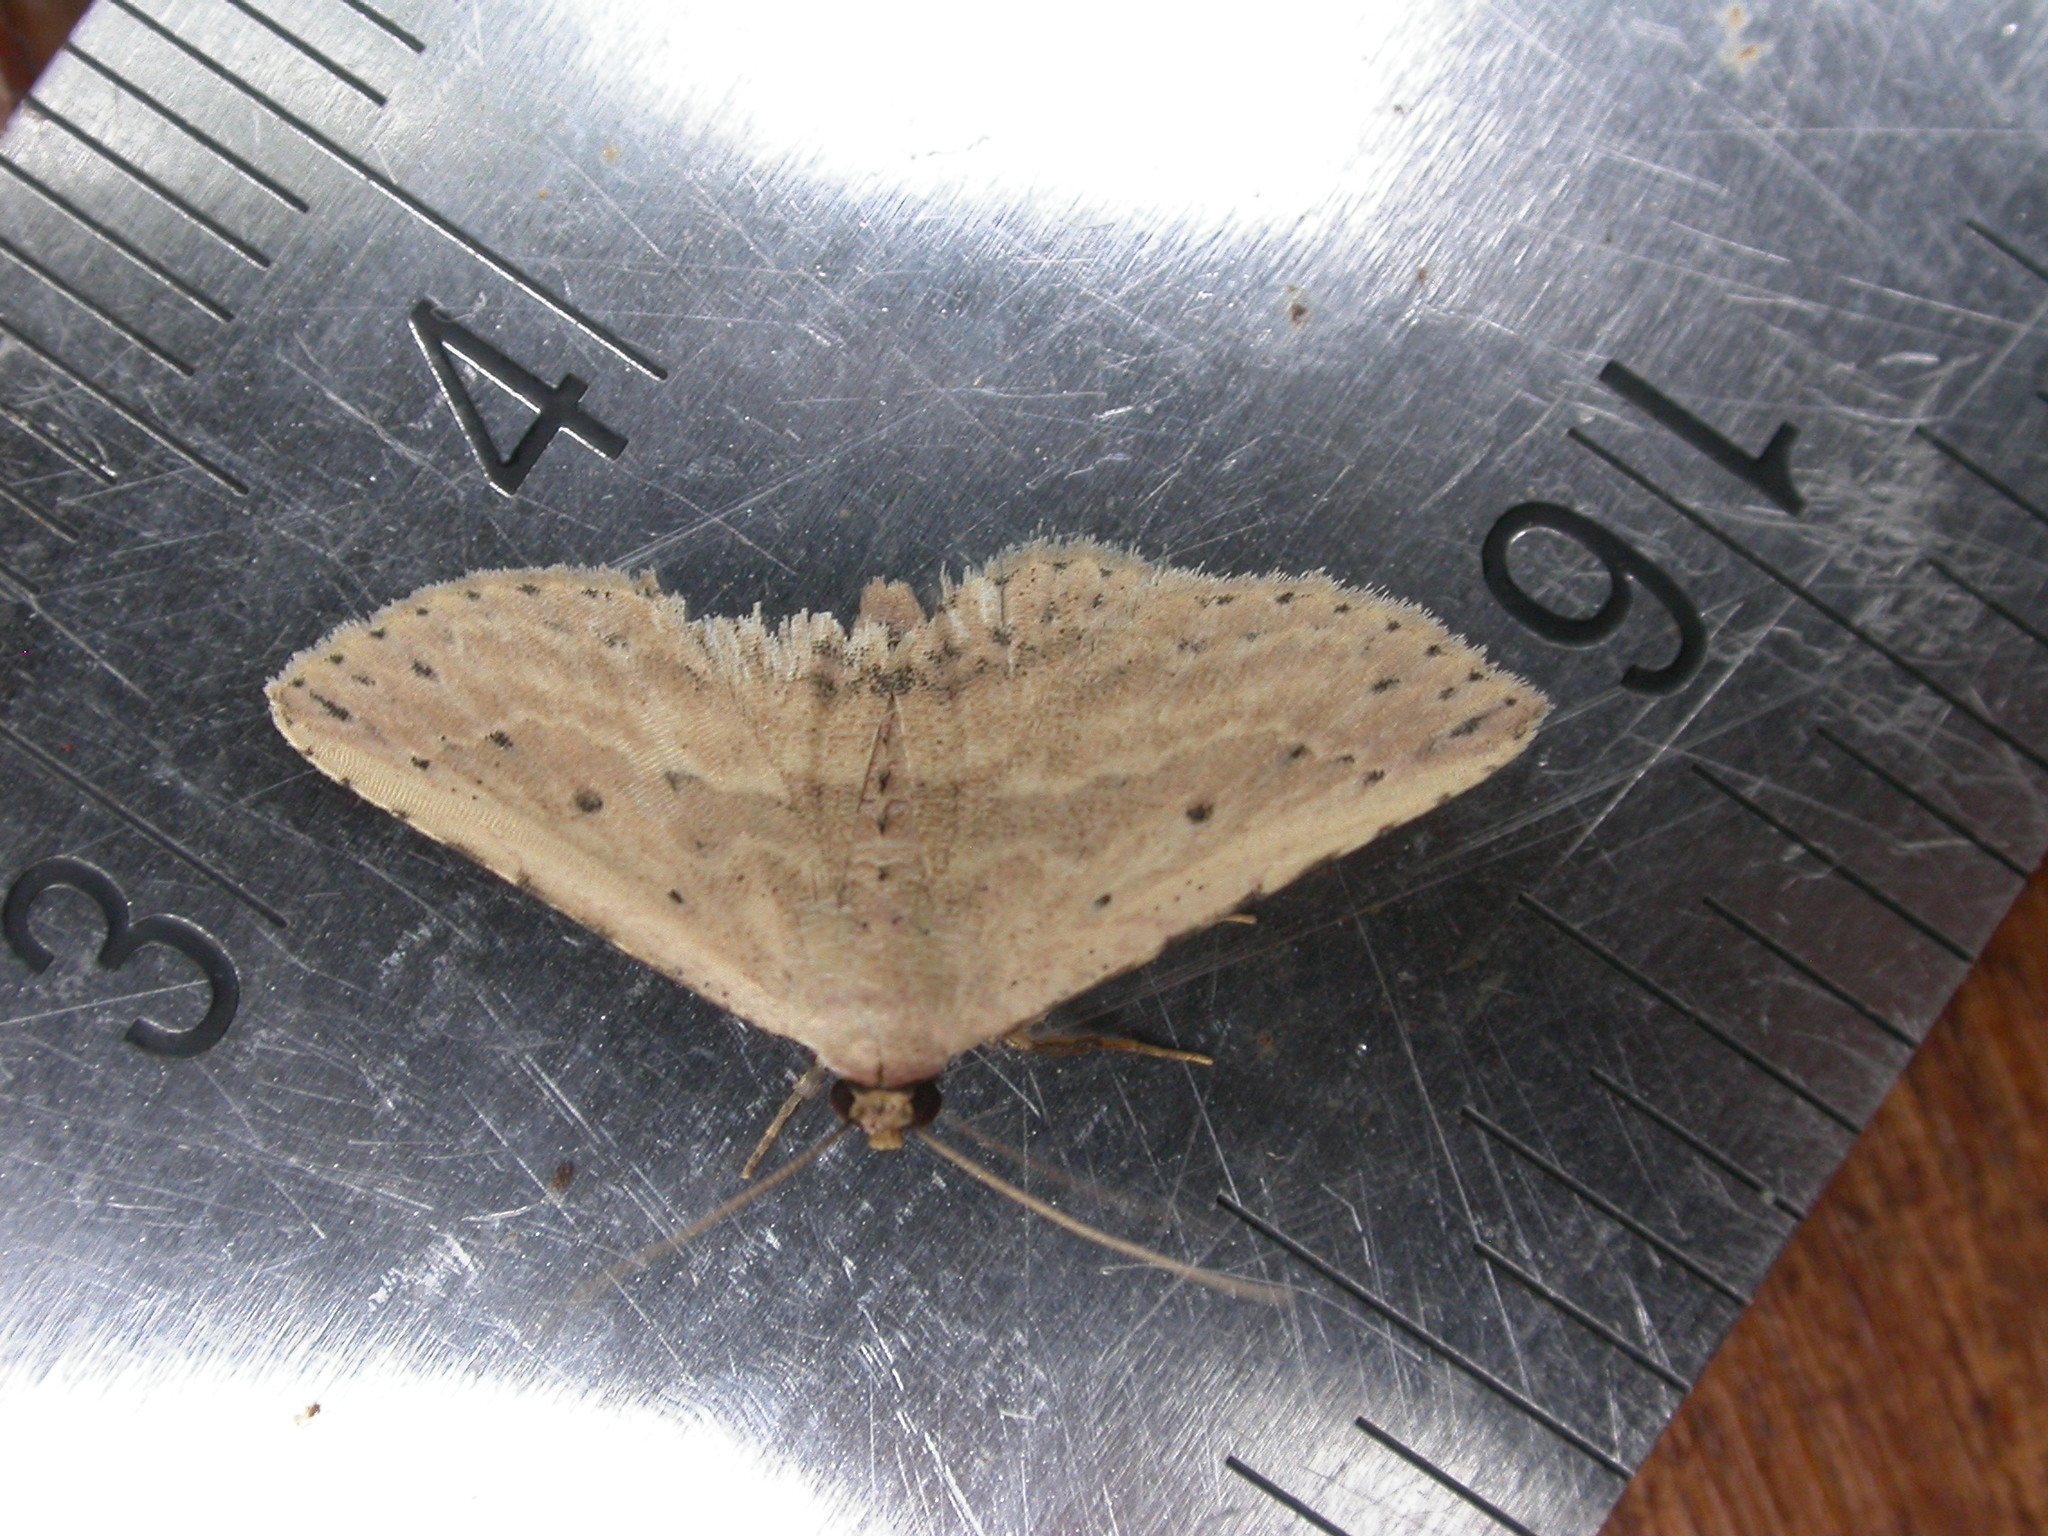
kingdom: Animalia
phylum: Arthropoda
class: Insecta
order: Lepidoptera
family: Noctuidae
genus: Hyposada
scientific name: Hyposada aspersa
